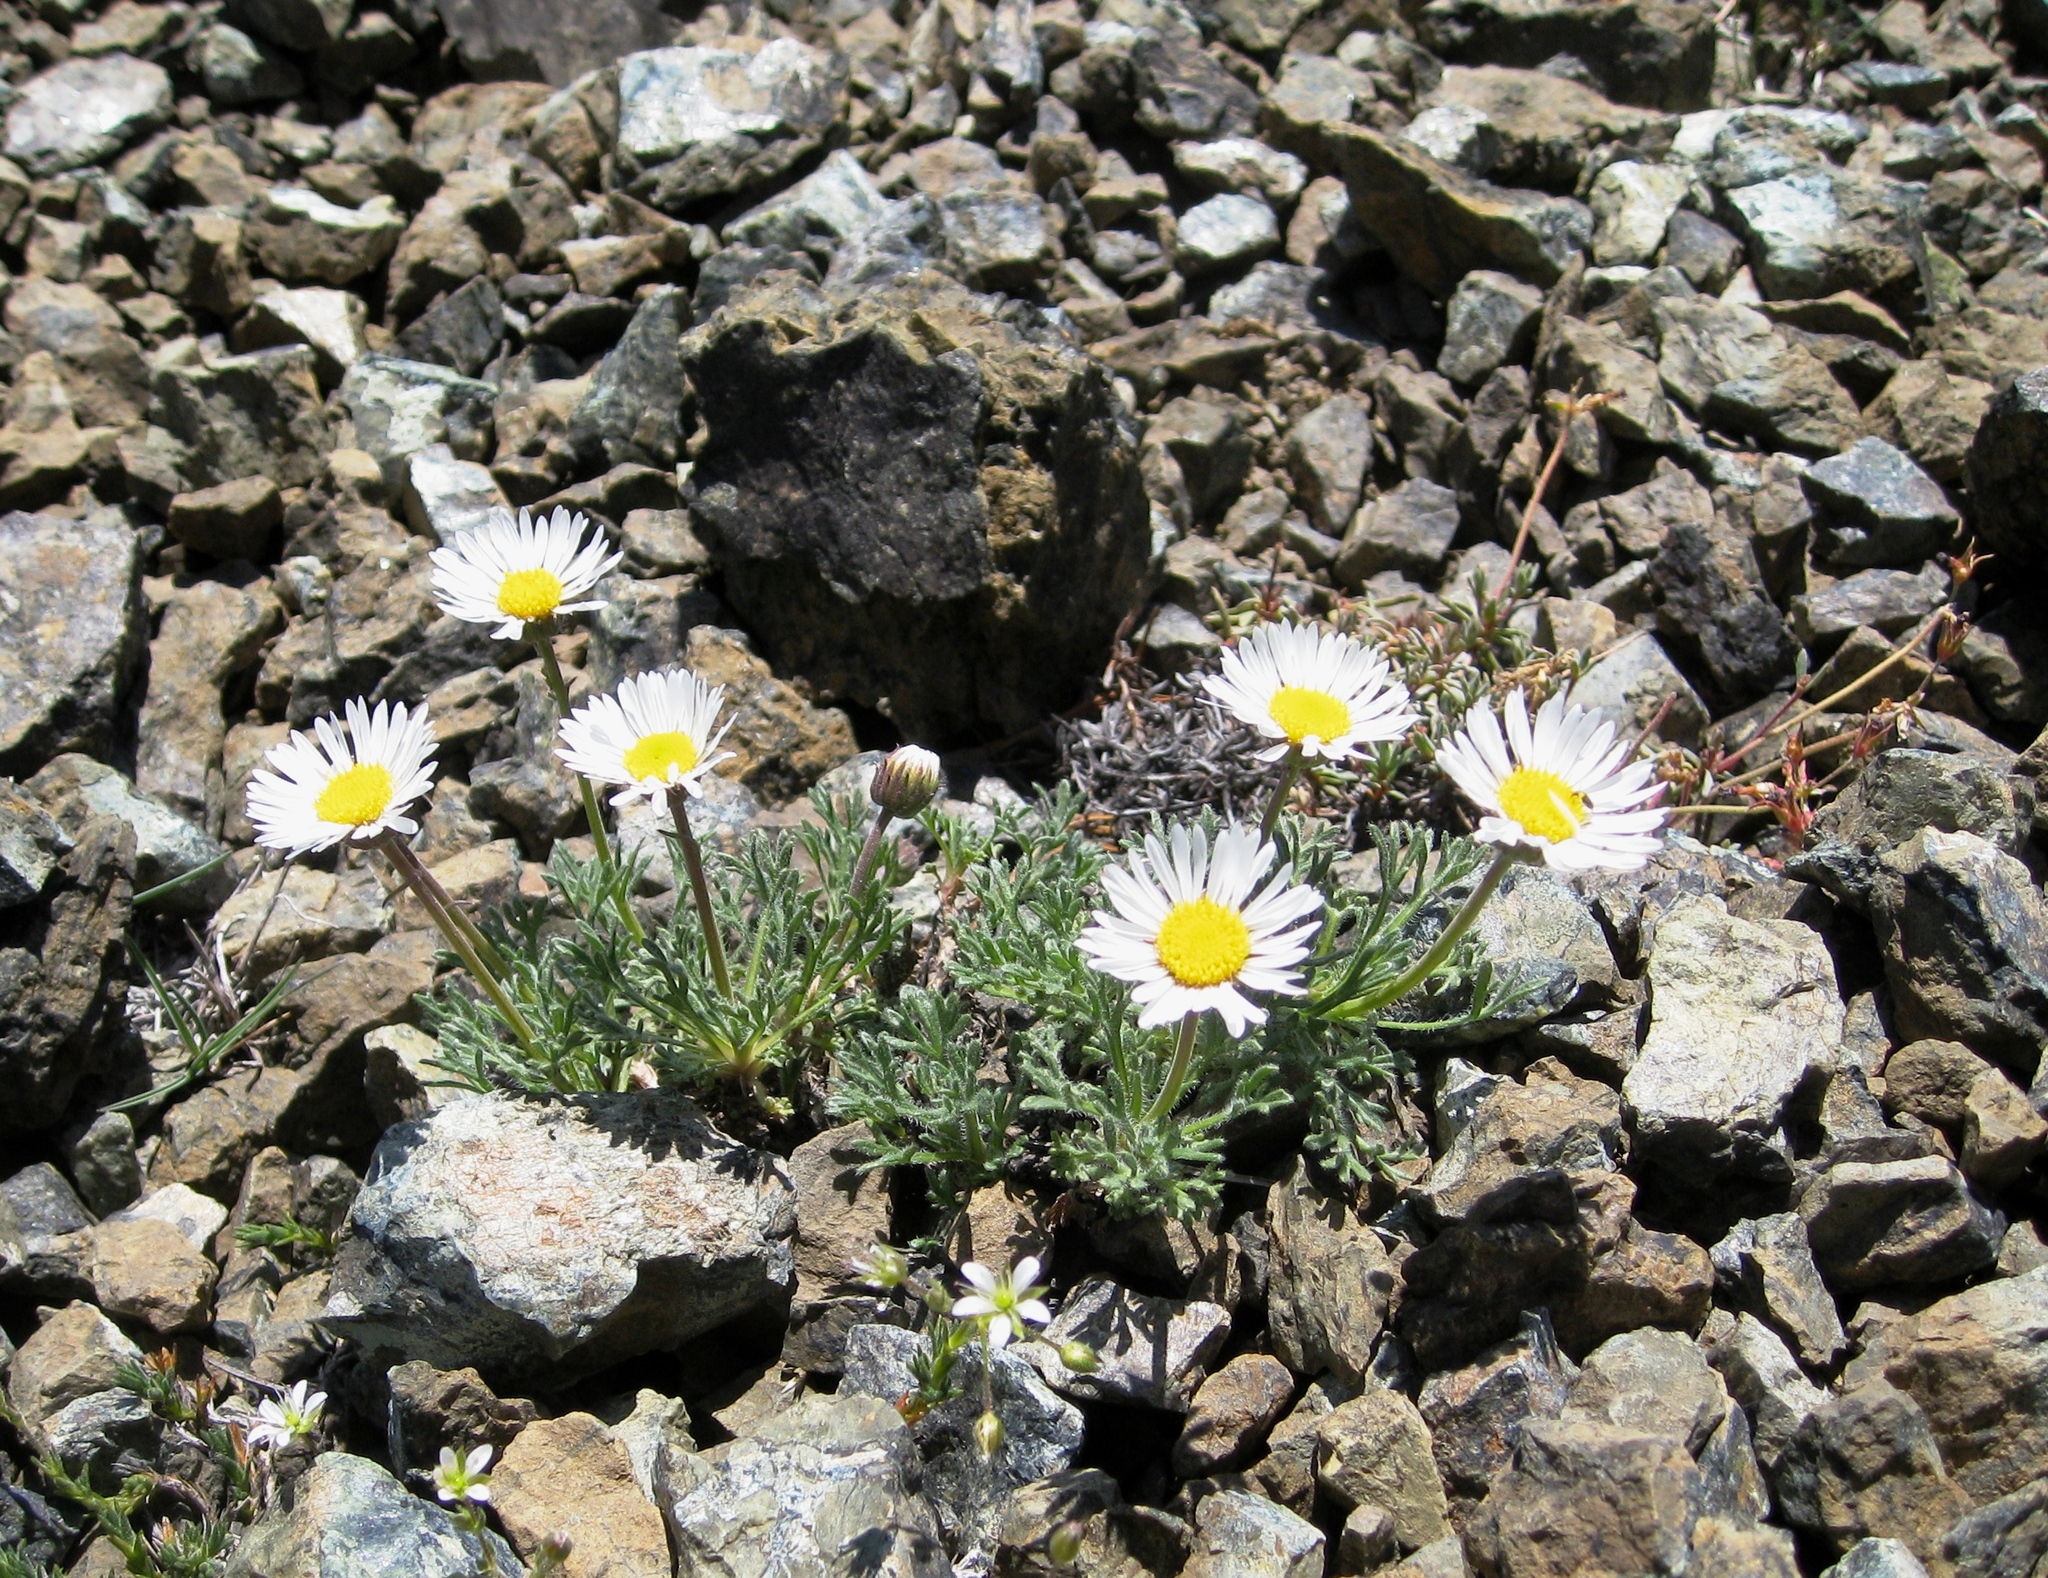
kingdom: Plantae
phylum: Tracheophyta
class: Magnoliopsida
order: Asterales
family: Asteraceae
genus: Erigeron
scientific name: Erigeron compositus
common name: Dwarf mountain fleabane
